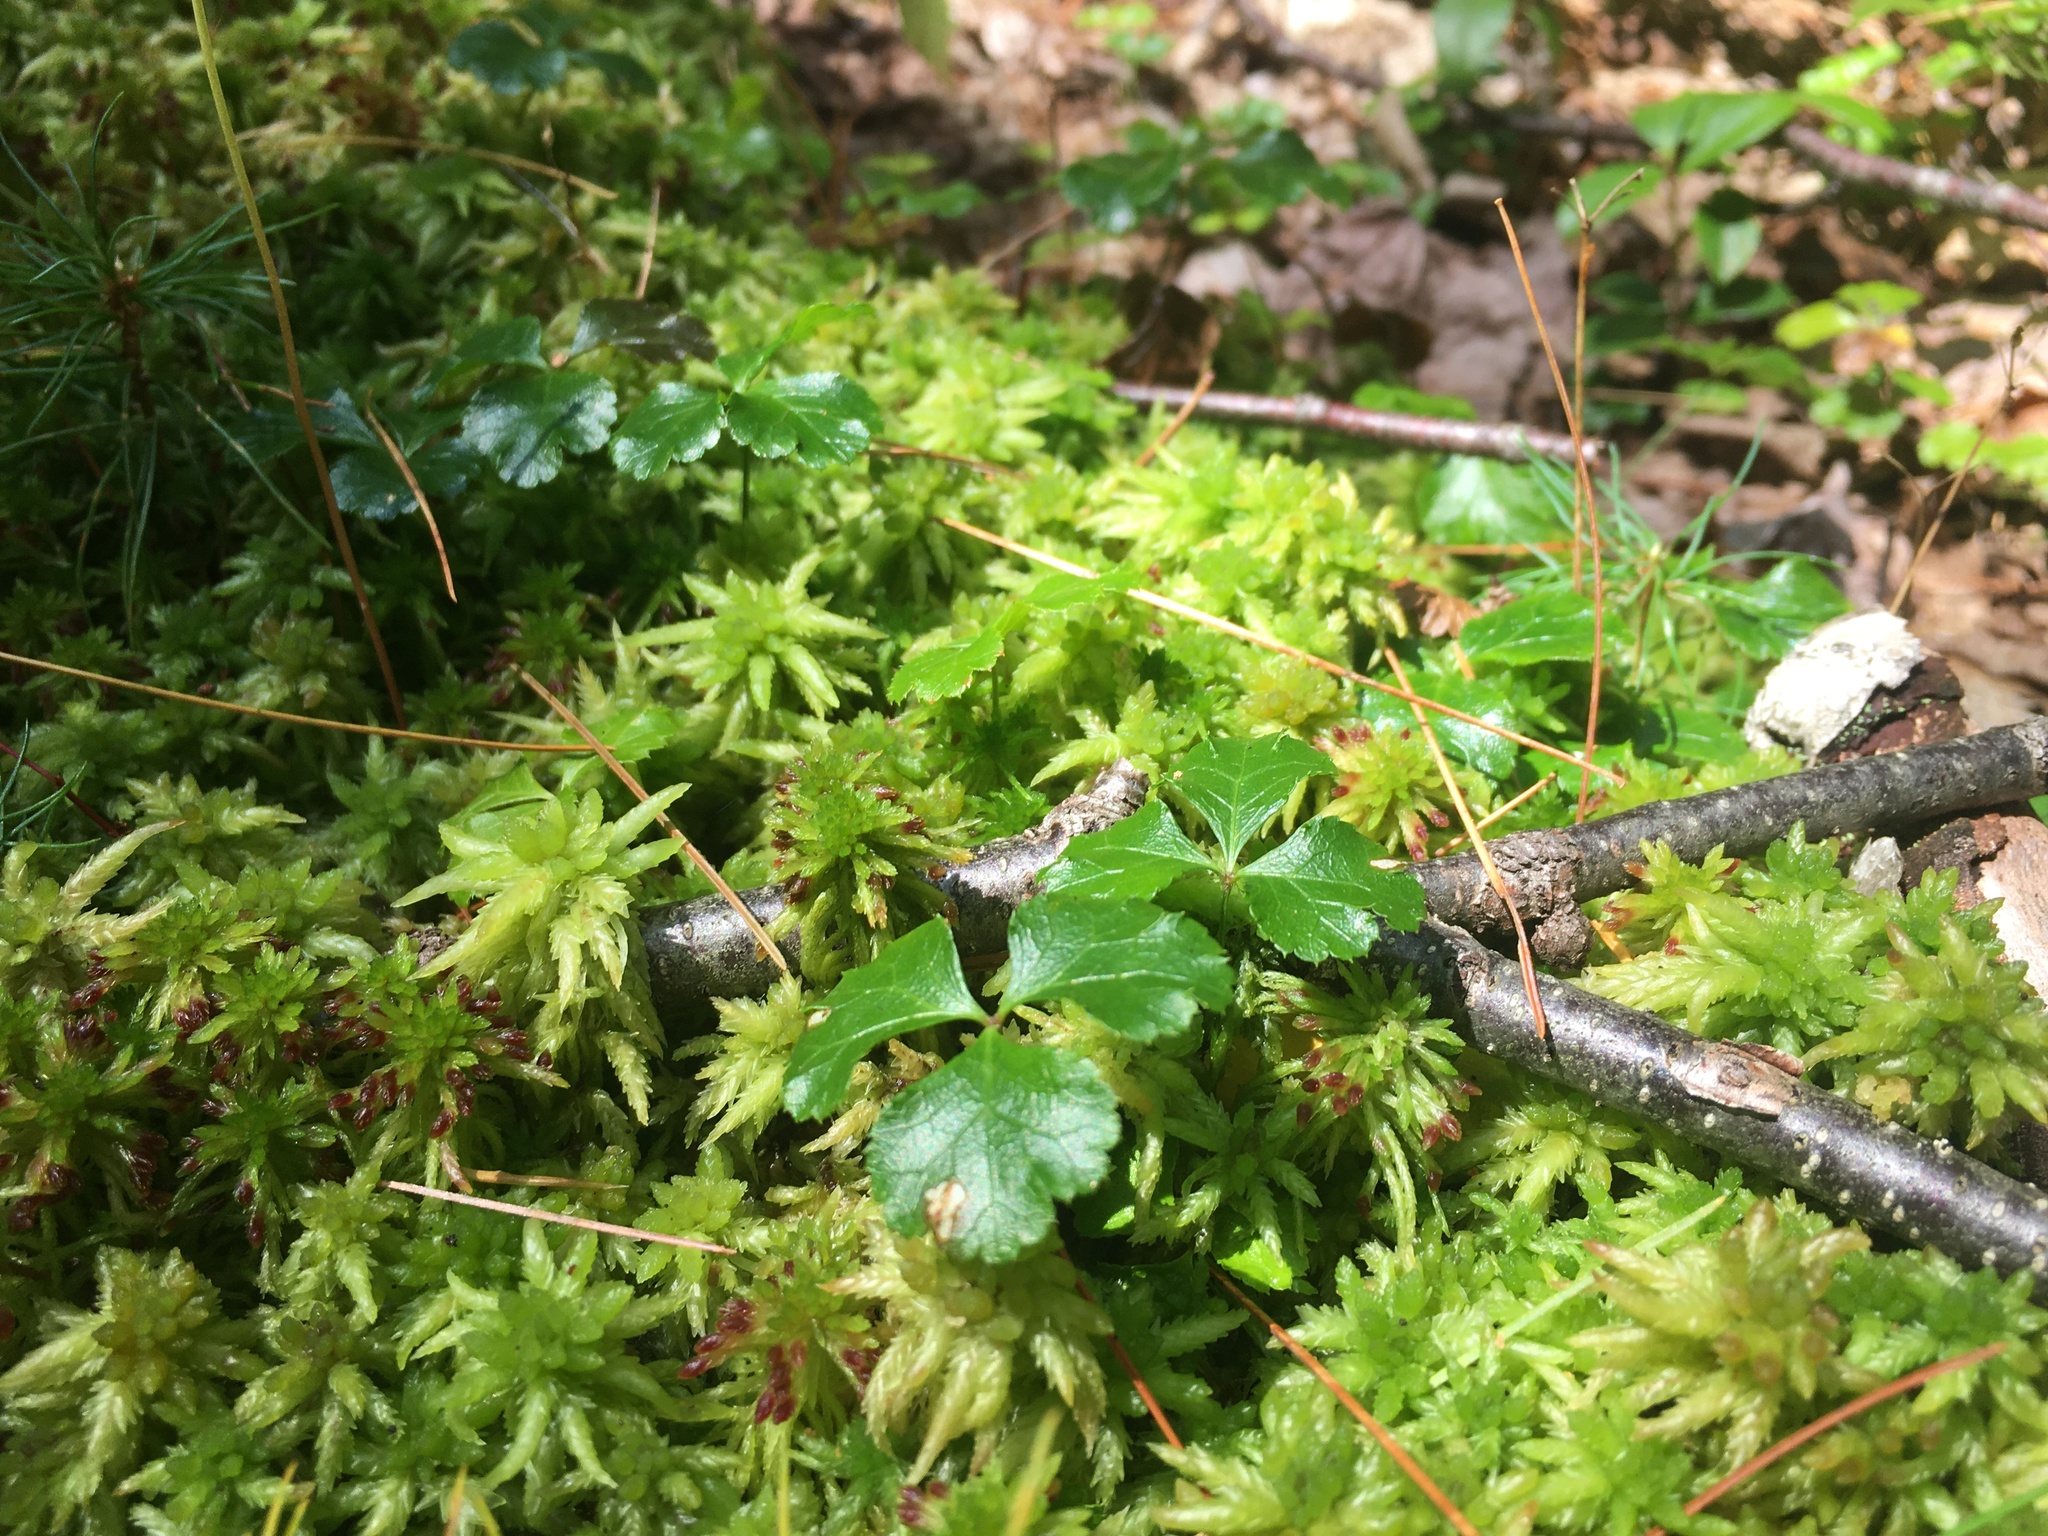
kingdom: Plantae
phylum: Tracheophyta
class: Magnoliopsida
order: Ranunculales
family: Ranunculaceae
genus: Coptis
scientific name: Coptis trifolia
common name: Canker-root
